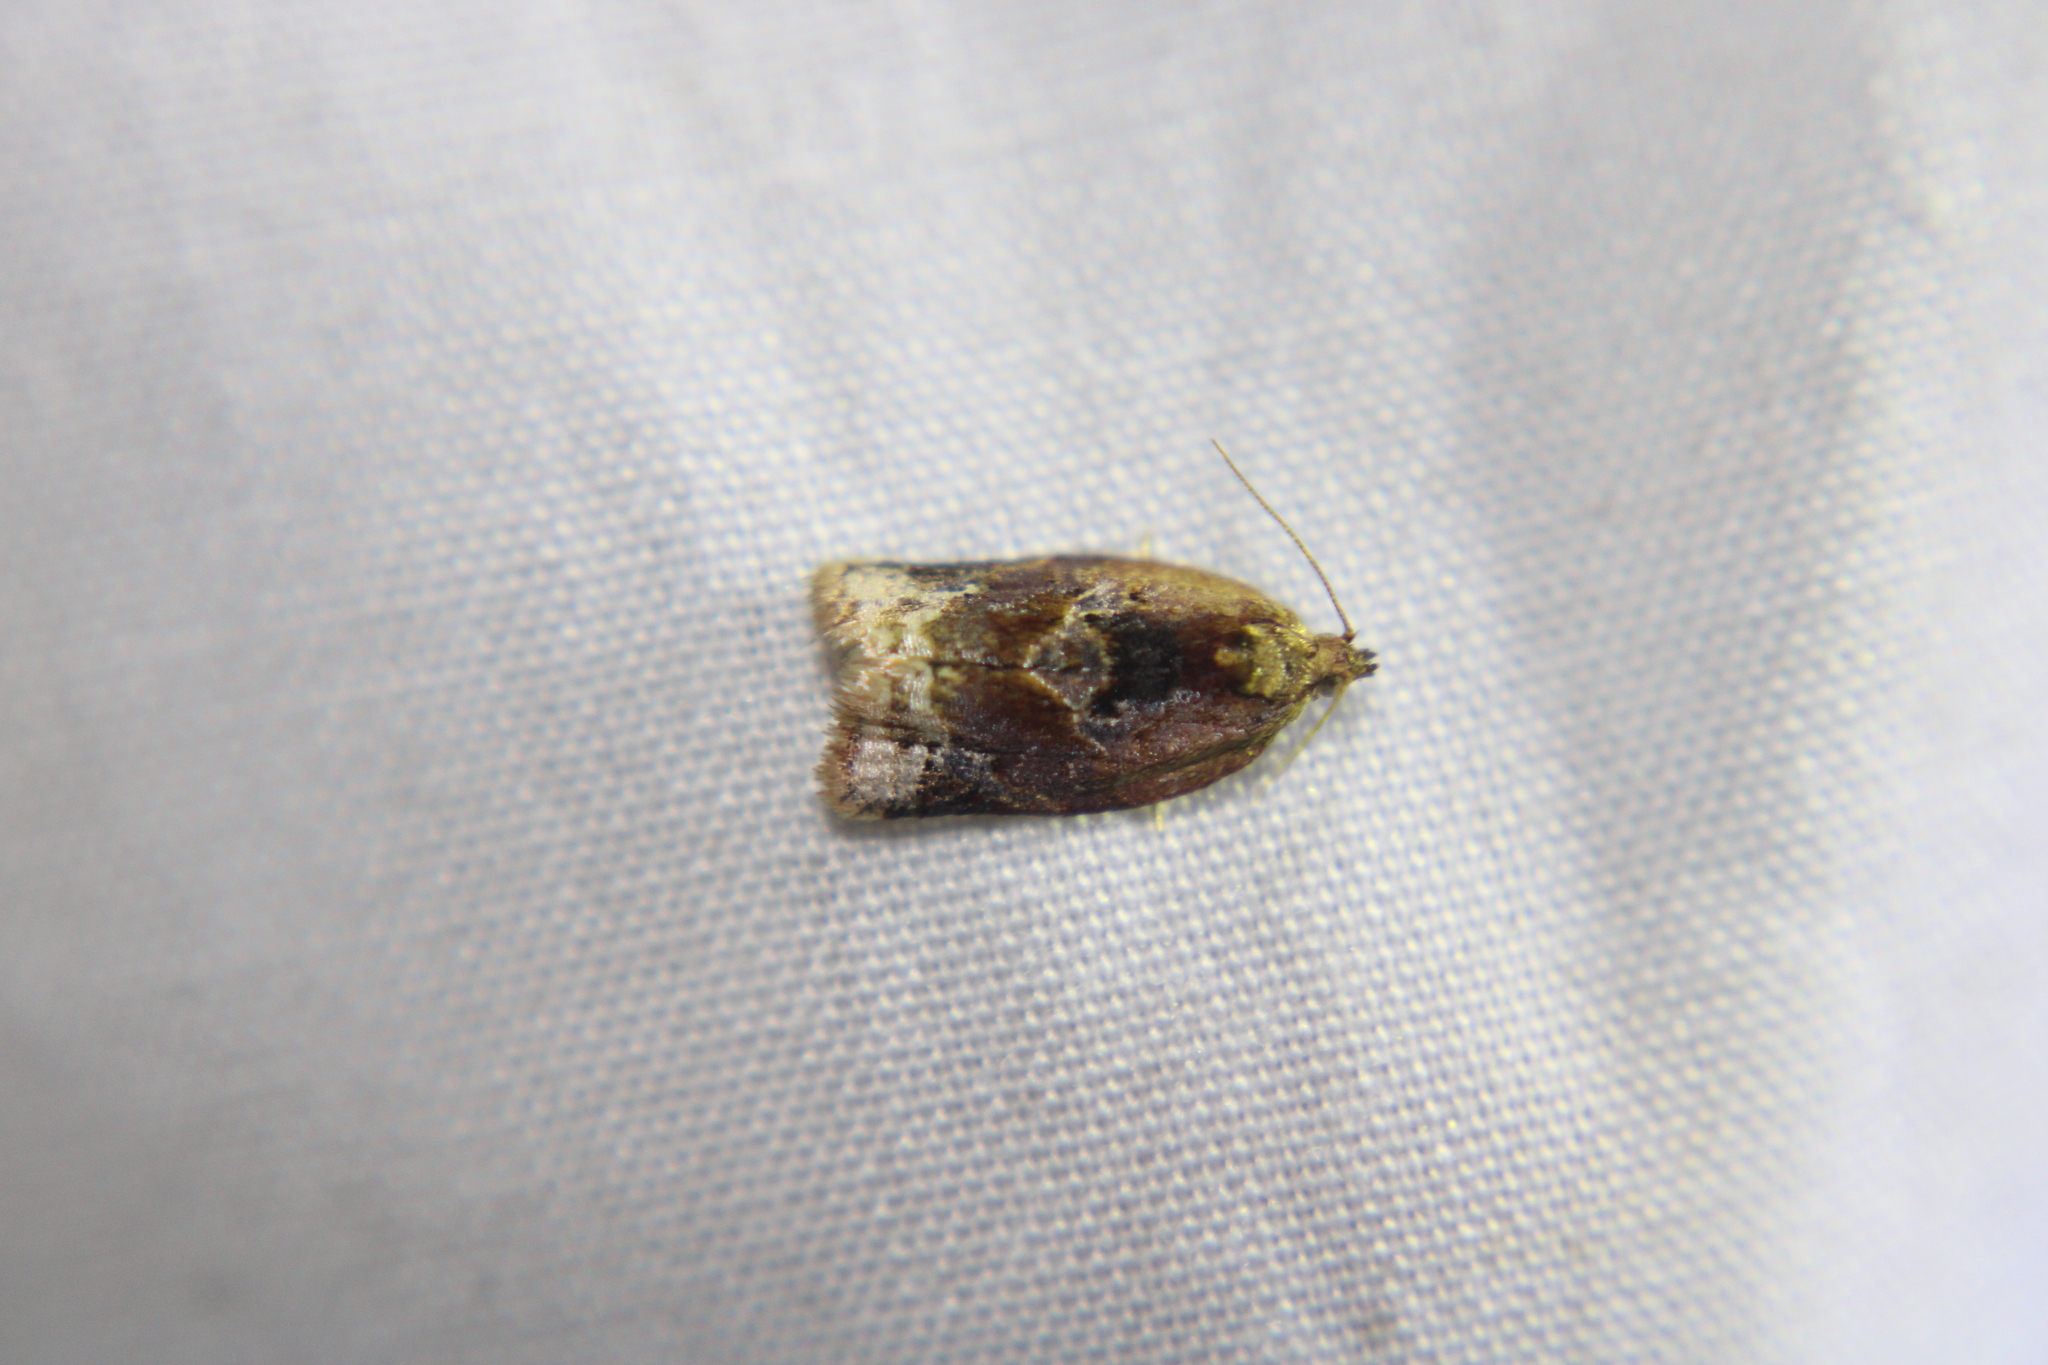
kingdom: Animalia
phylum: Arthropoda
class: Insecta
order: Lepidoptera
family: Tortricidae
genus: Argyrotaenia
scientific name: Argyrotaenia velutinana
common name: Red-banded leafroller moth
